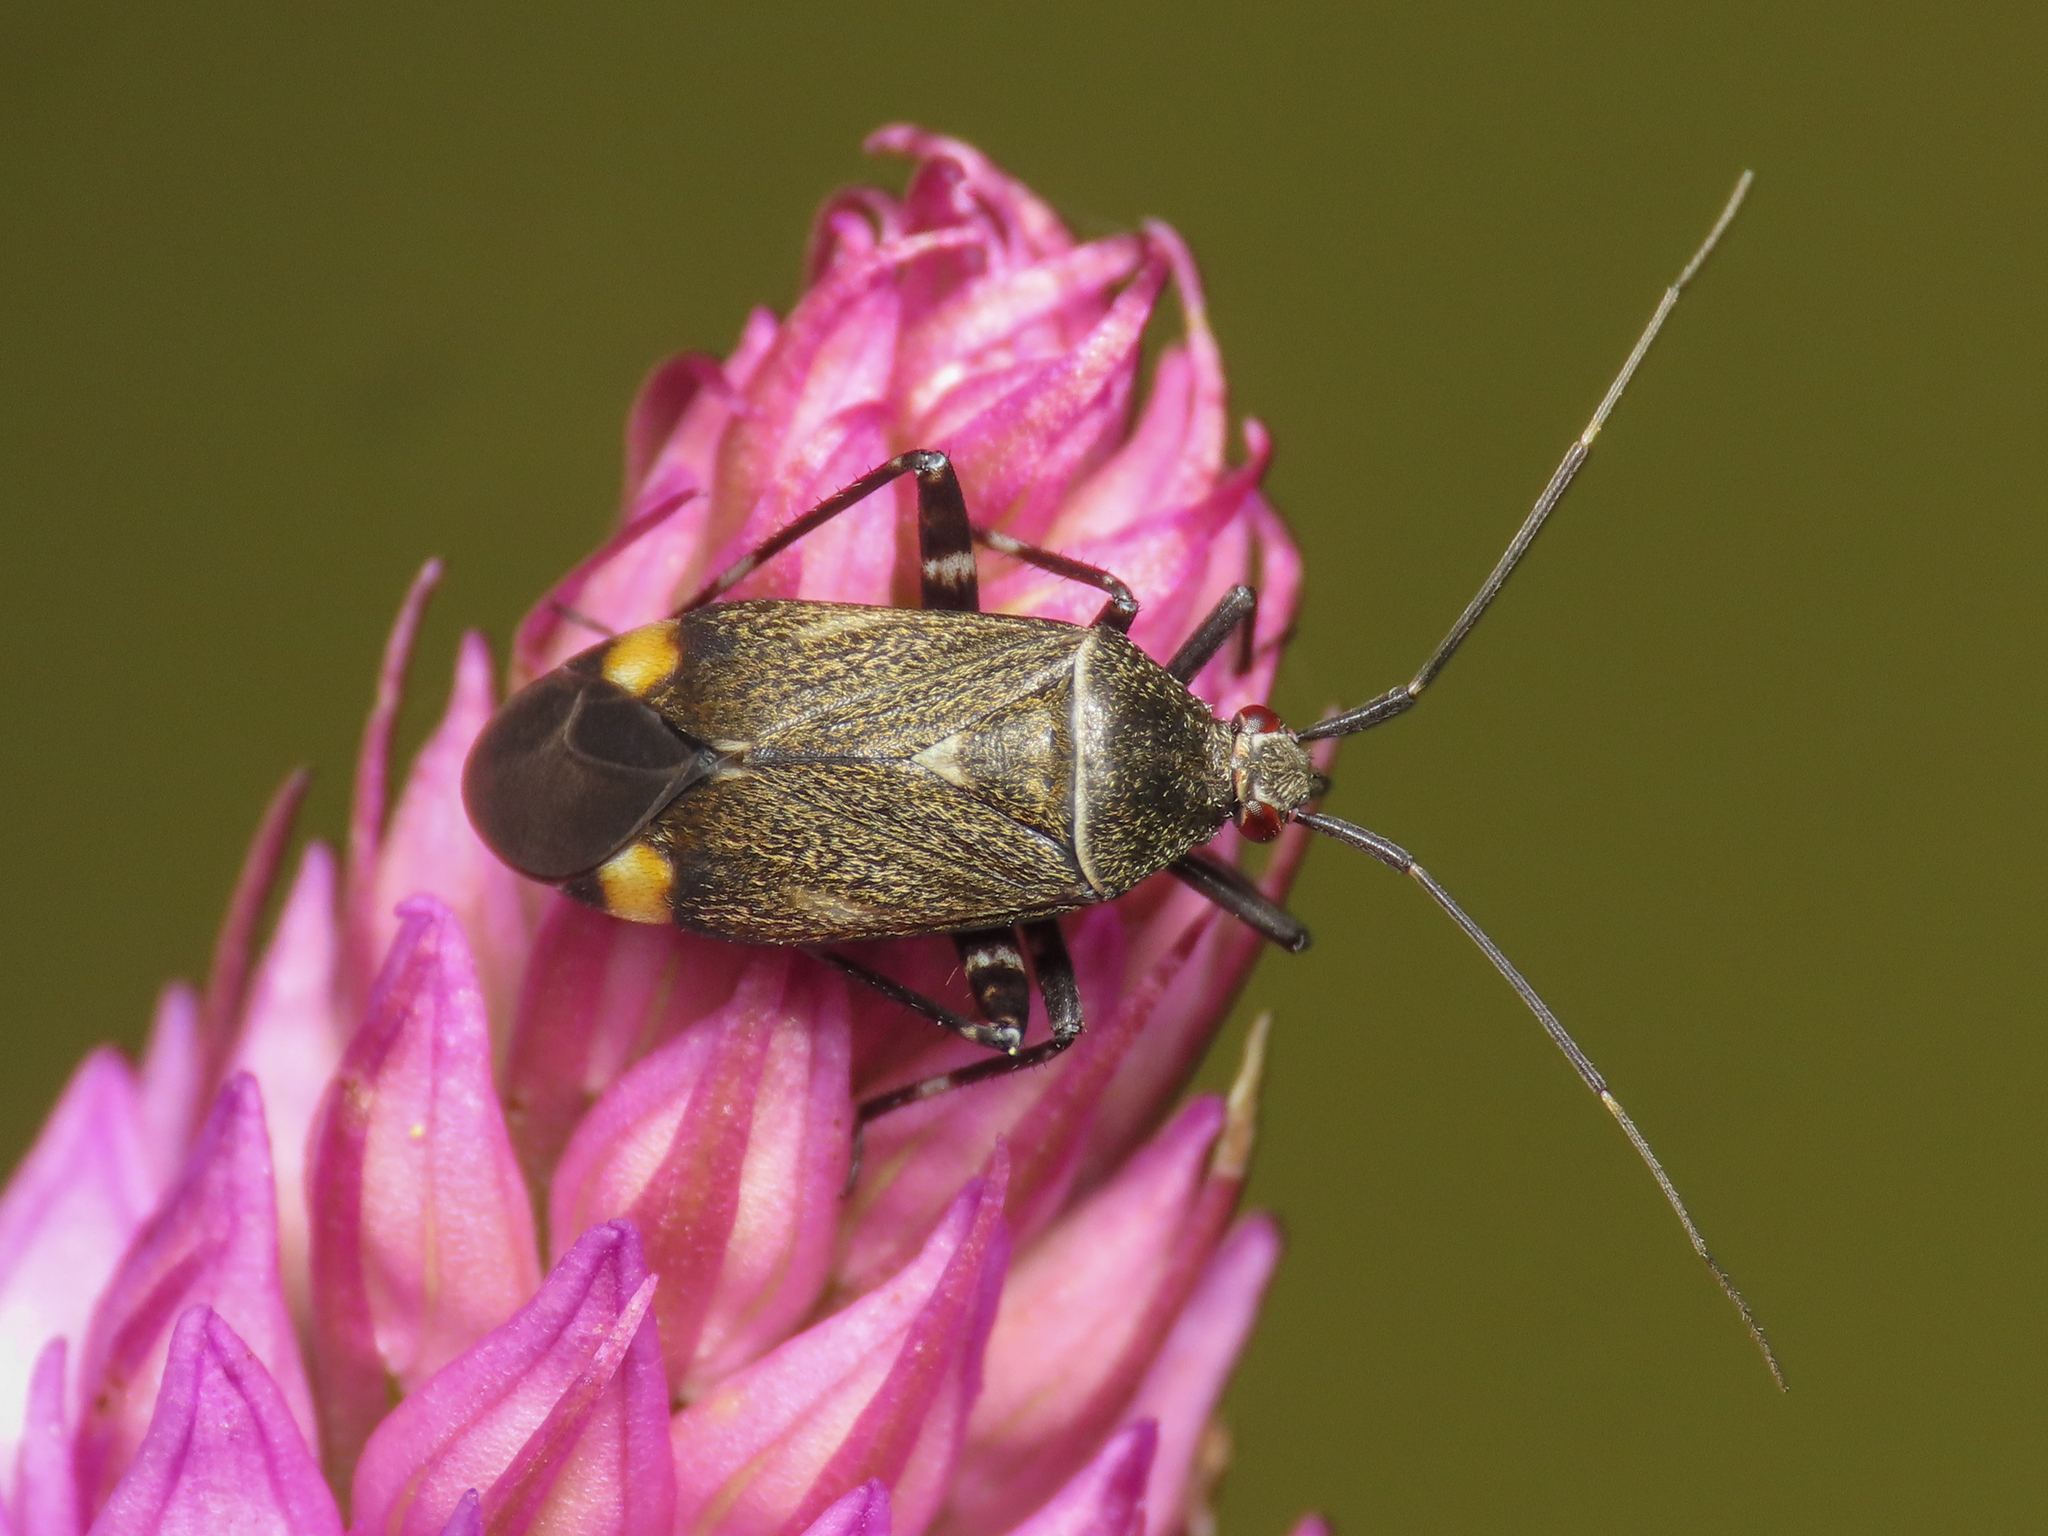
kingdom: Animalia
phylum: Arthropoda
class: Insecta
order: Hemiptera
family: Miridae
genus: Closterotomus
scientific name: Closterotomus cinctipes
